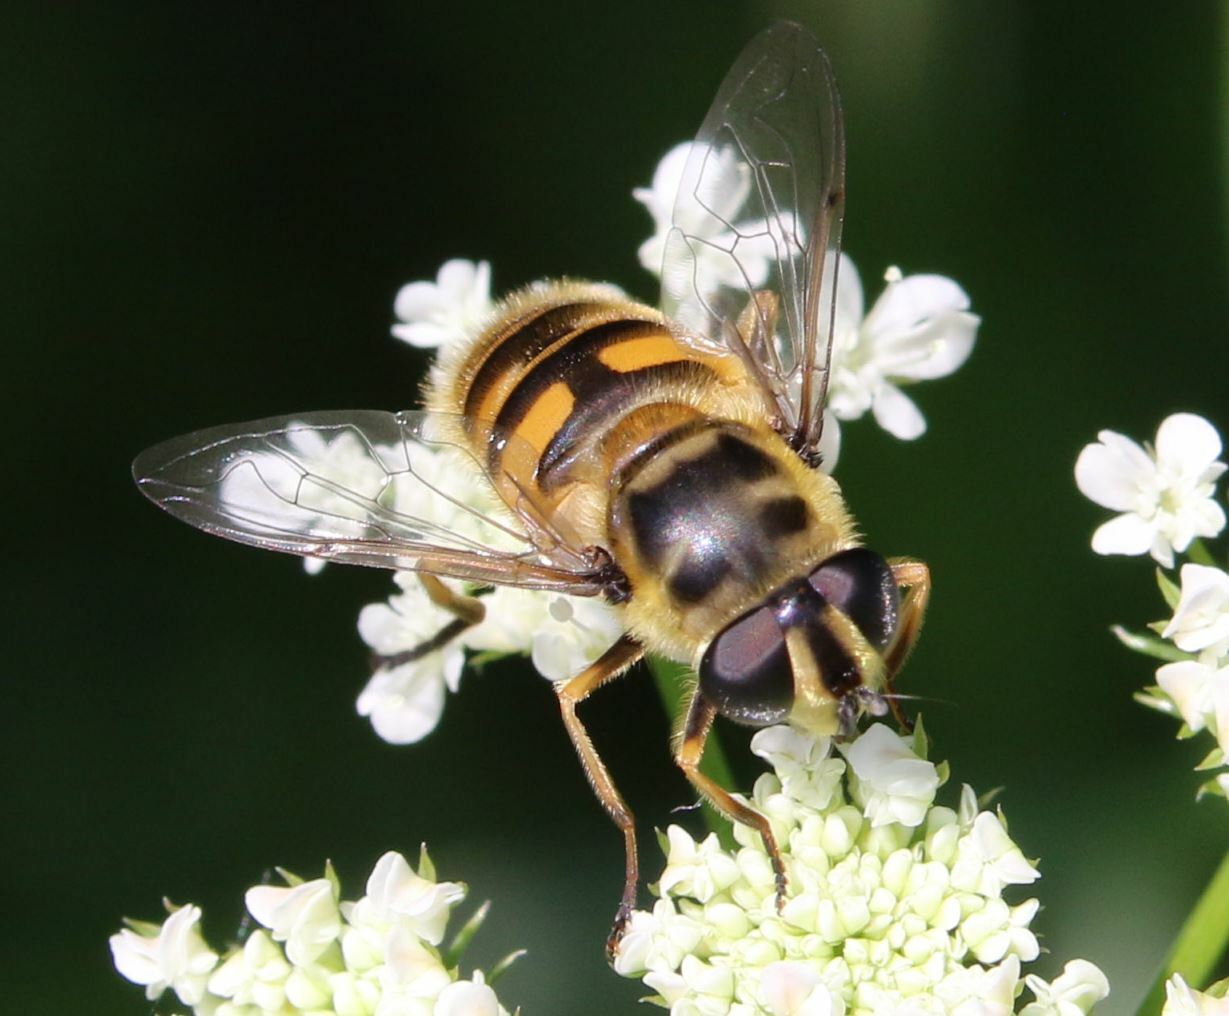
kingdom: Animalia
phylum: Arthropoda
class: Insecta
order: Diptera
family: Syrphidae
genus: Myathropa
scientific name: Myathropa florea
